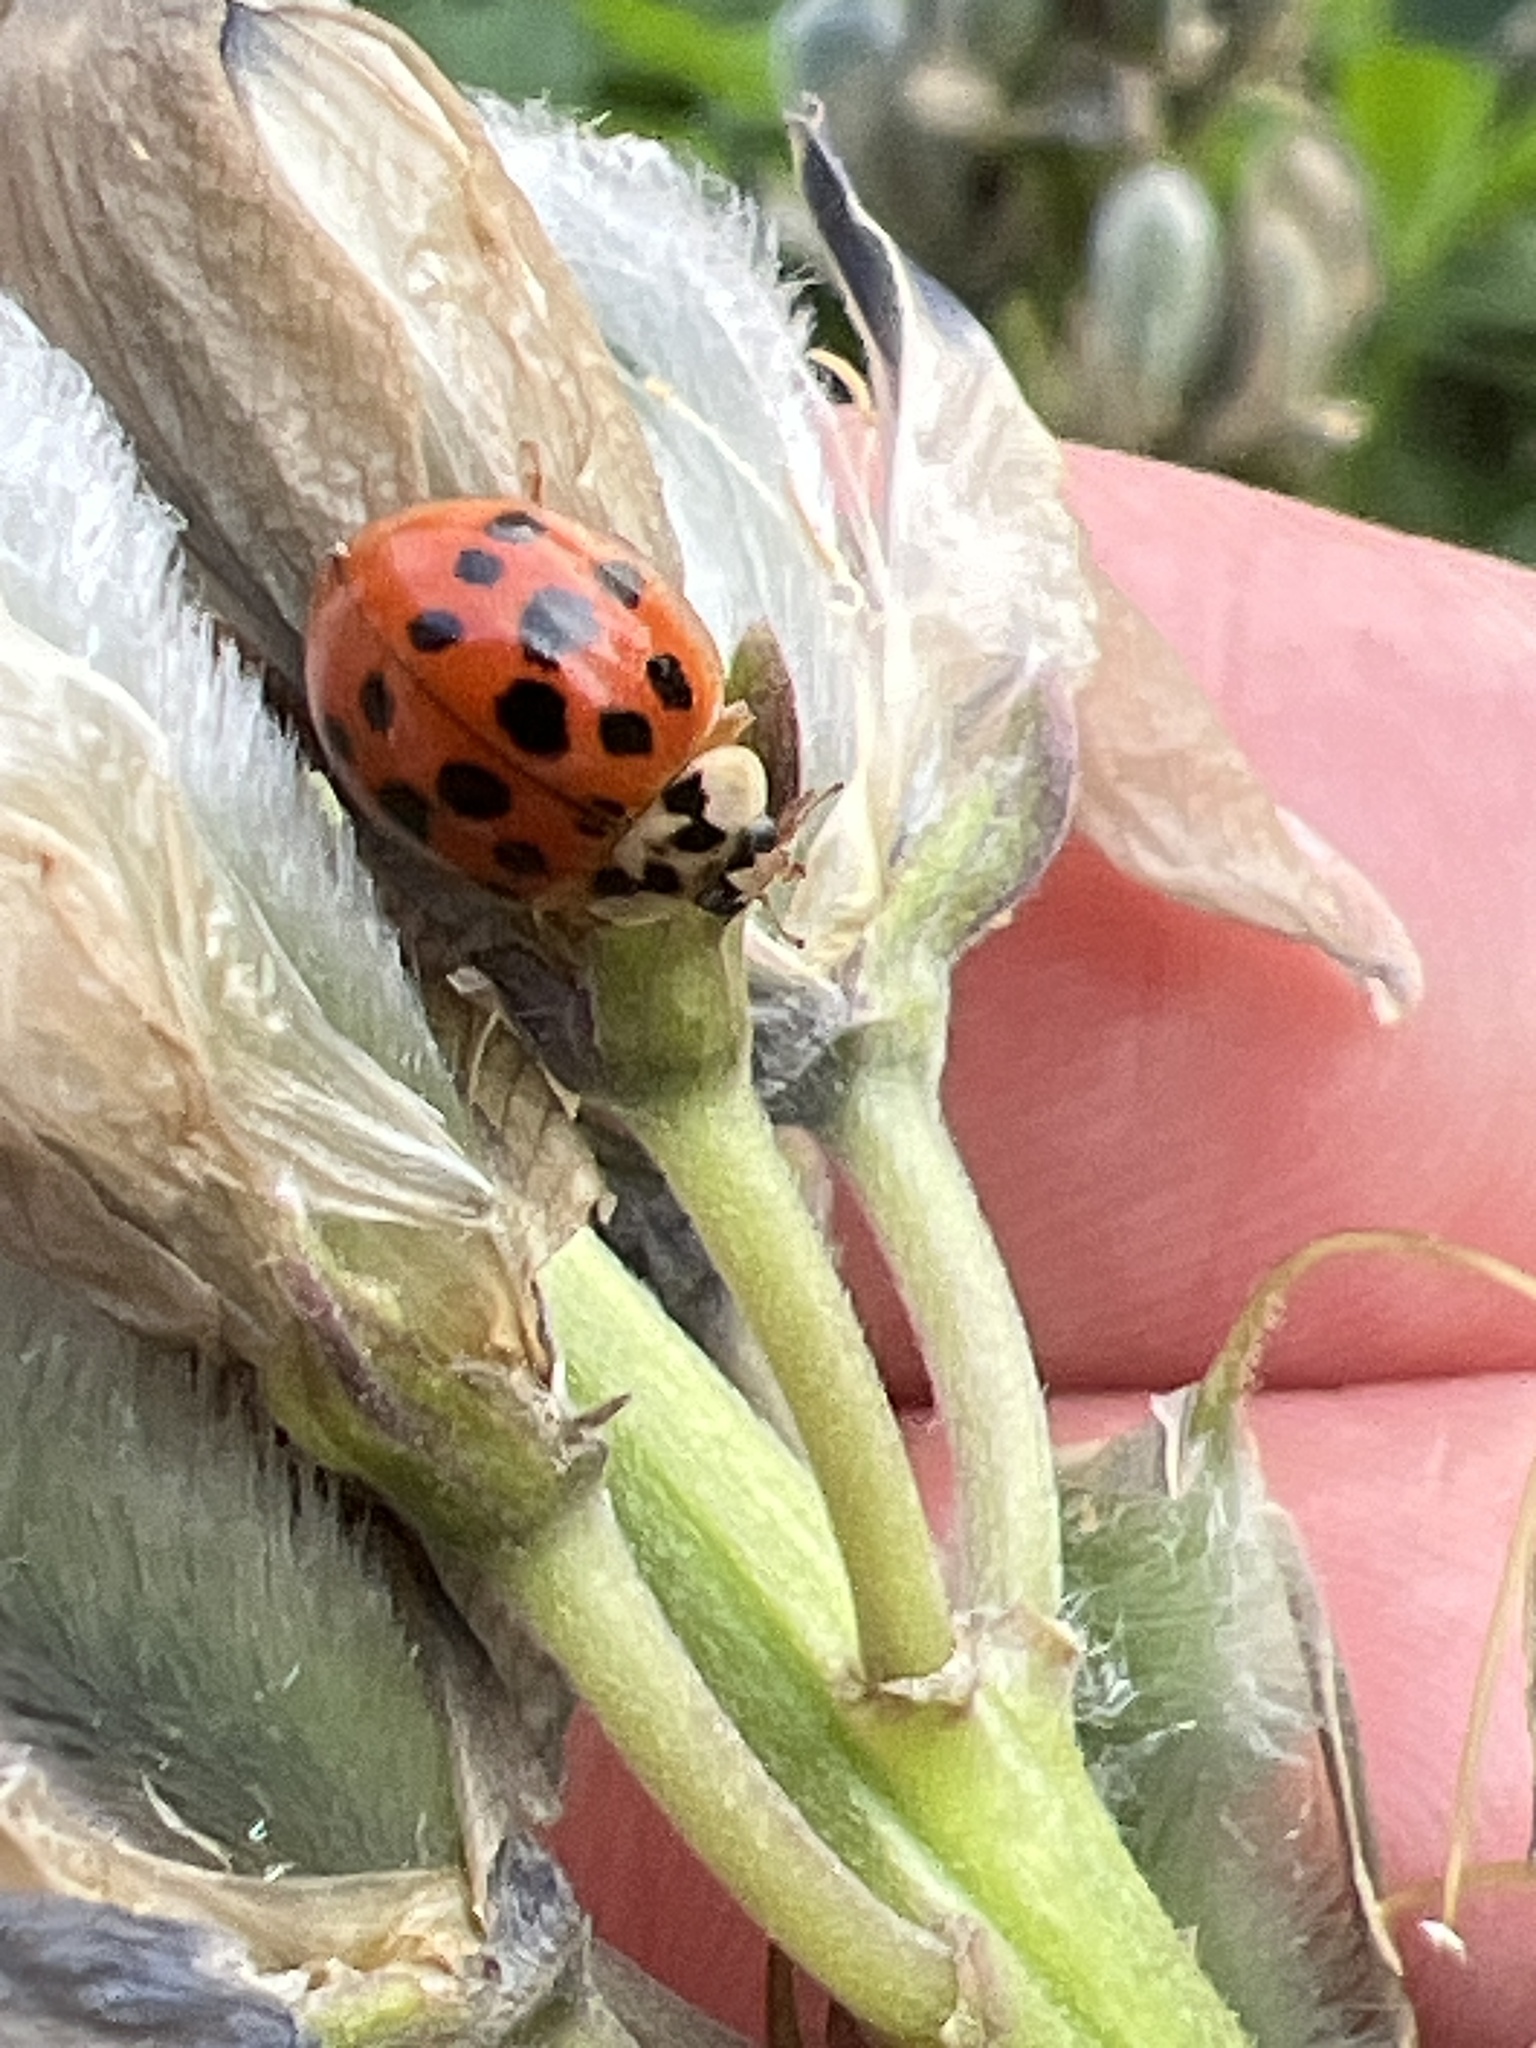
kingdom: Animalia
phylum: Arthropoda
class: Insecta
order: Coleoptera
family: Coccinellidae
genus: Harmonia
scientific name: Harmonia axyridis
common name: Harlequin ladybird
